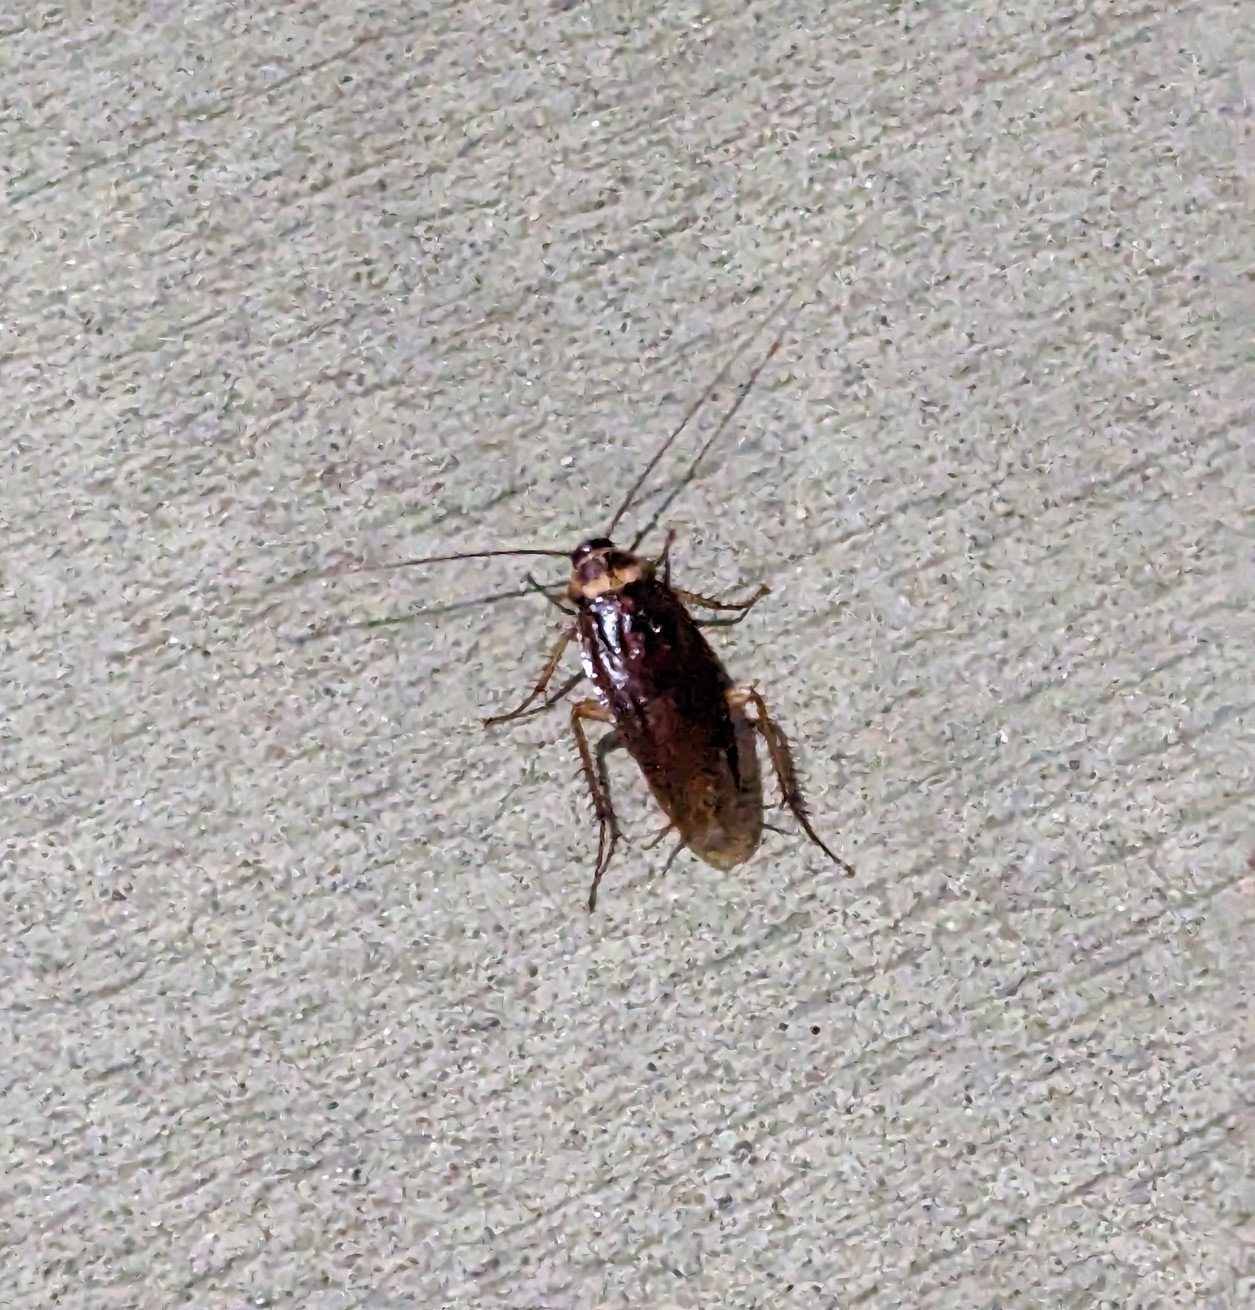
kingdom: Animalia
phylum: Arthropoda
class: Insecta
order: Blattodea
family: Blattidae
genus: Periplaneta
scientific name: Periplaneta americana
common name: American cockroach
